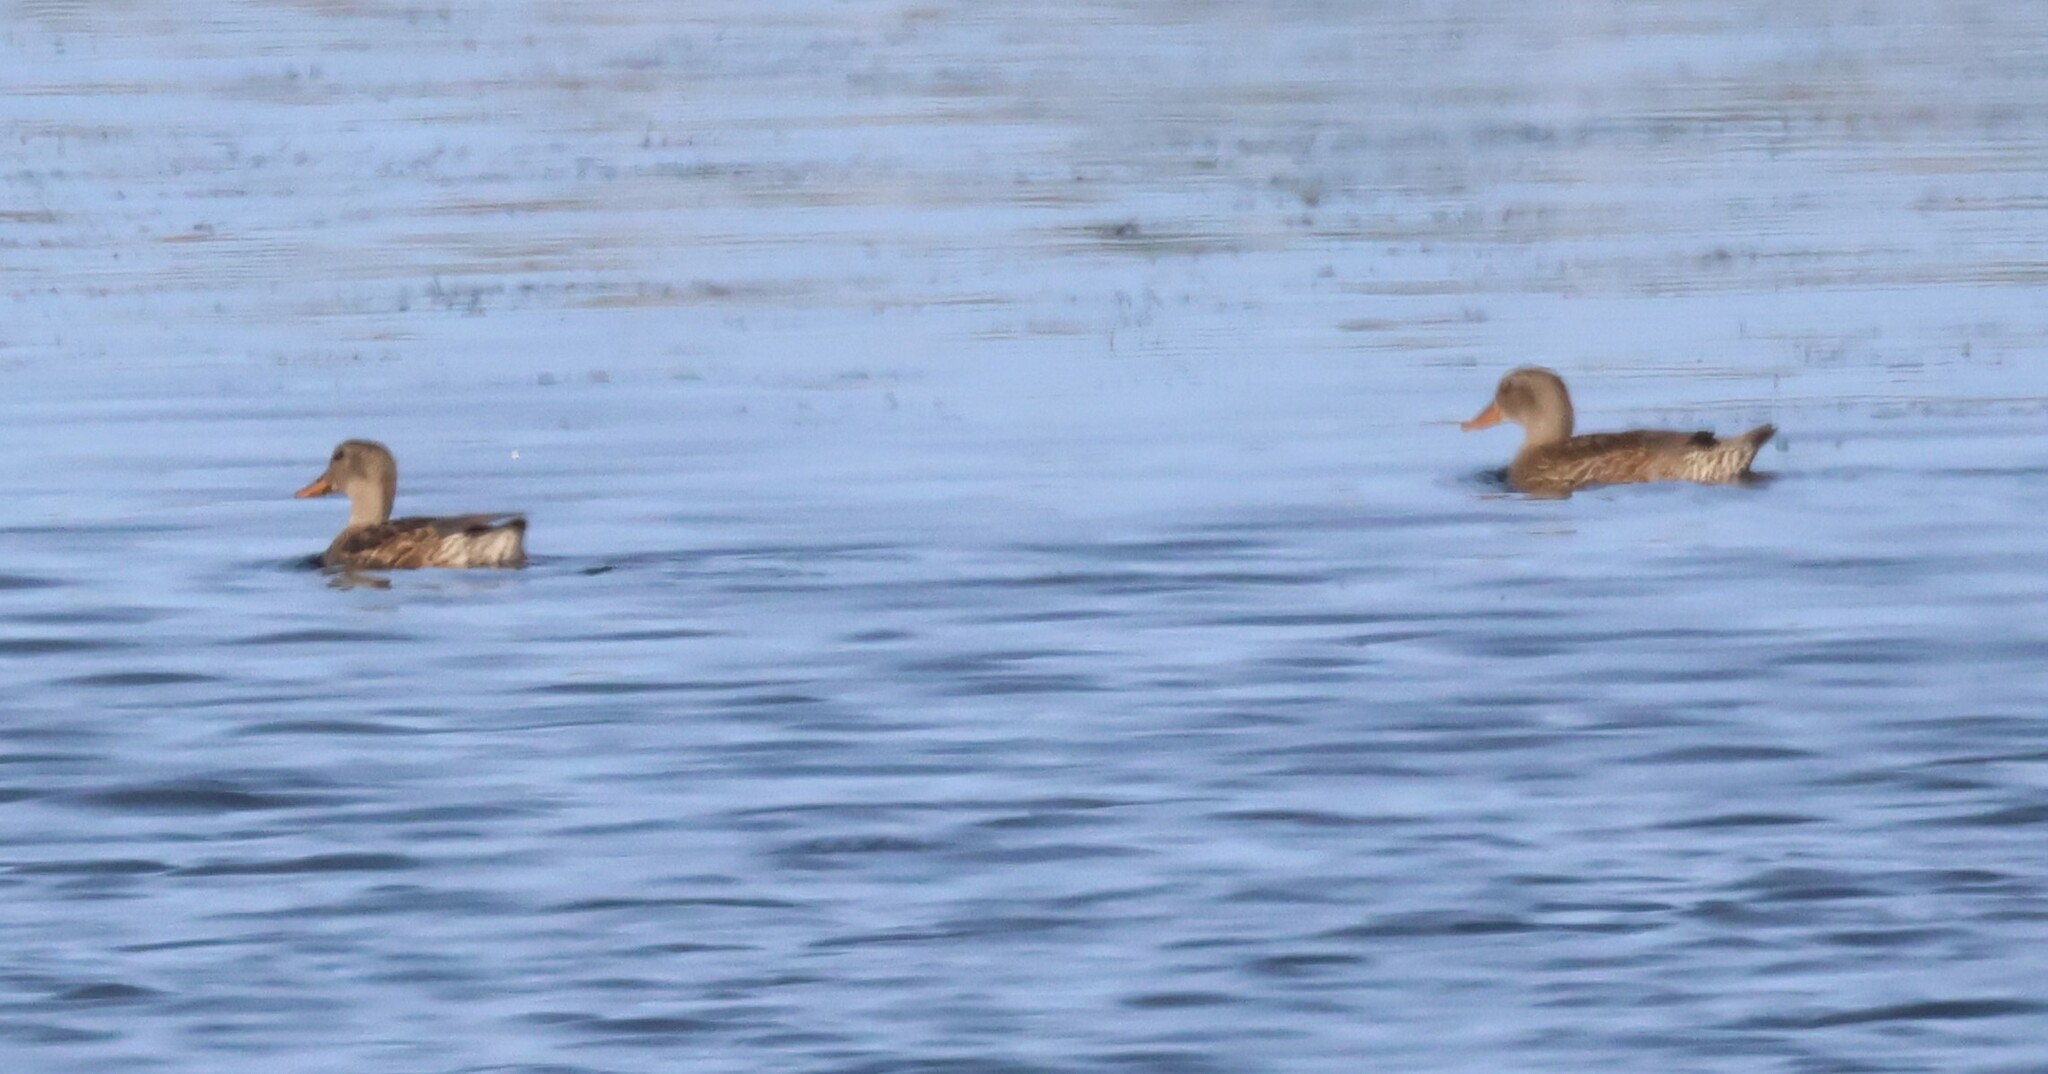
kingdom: Animalia
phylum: Chordata
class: Aves
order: Anseriformes
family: Anatidae
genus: Mareca
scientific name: Mareca strepera
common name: Gadwall
